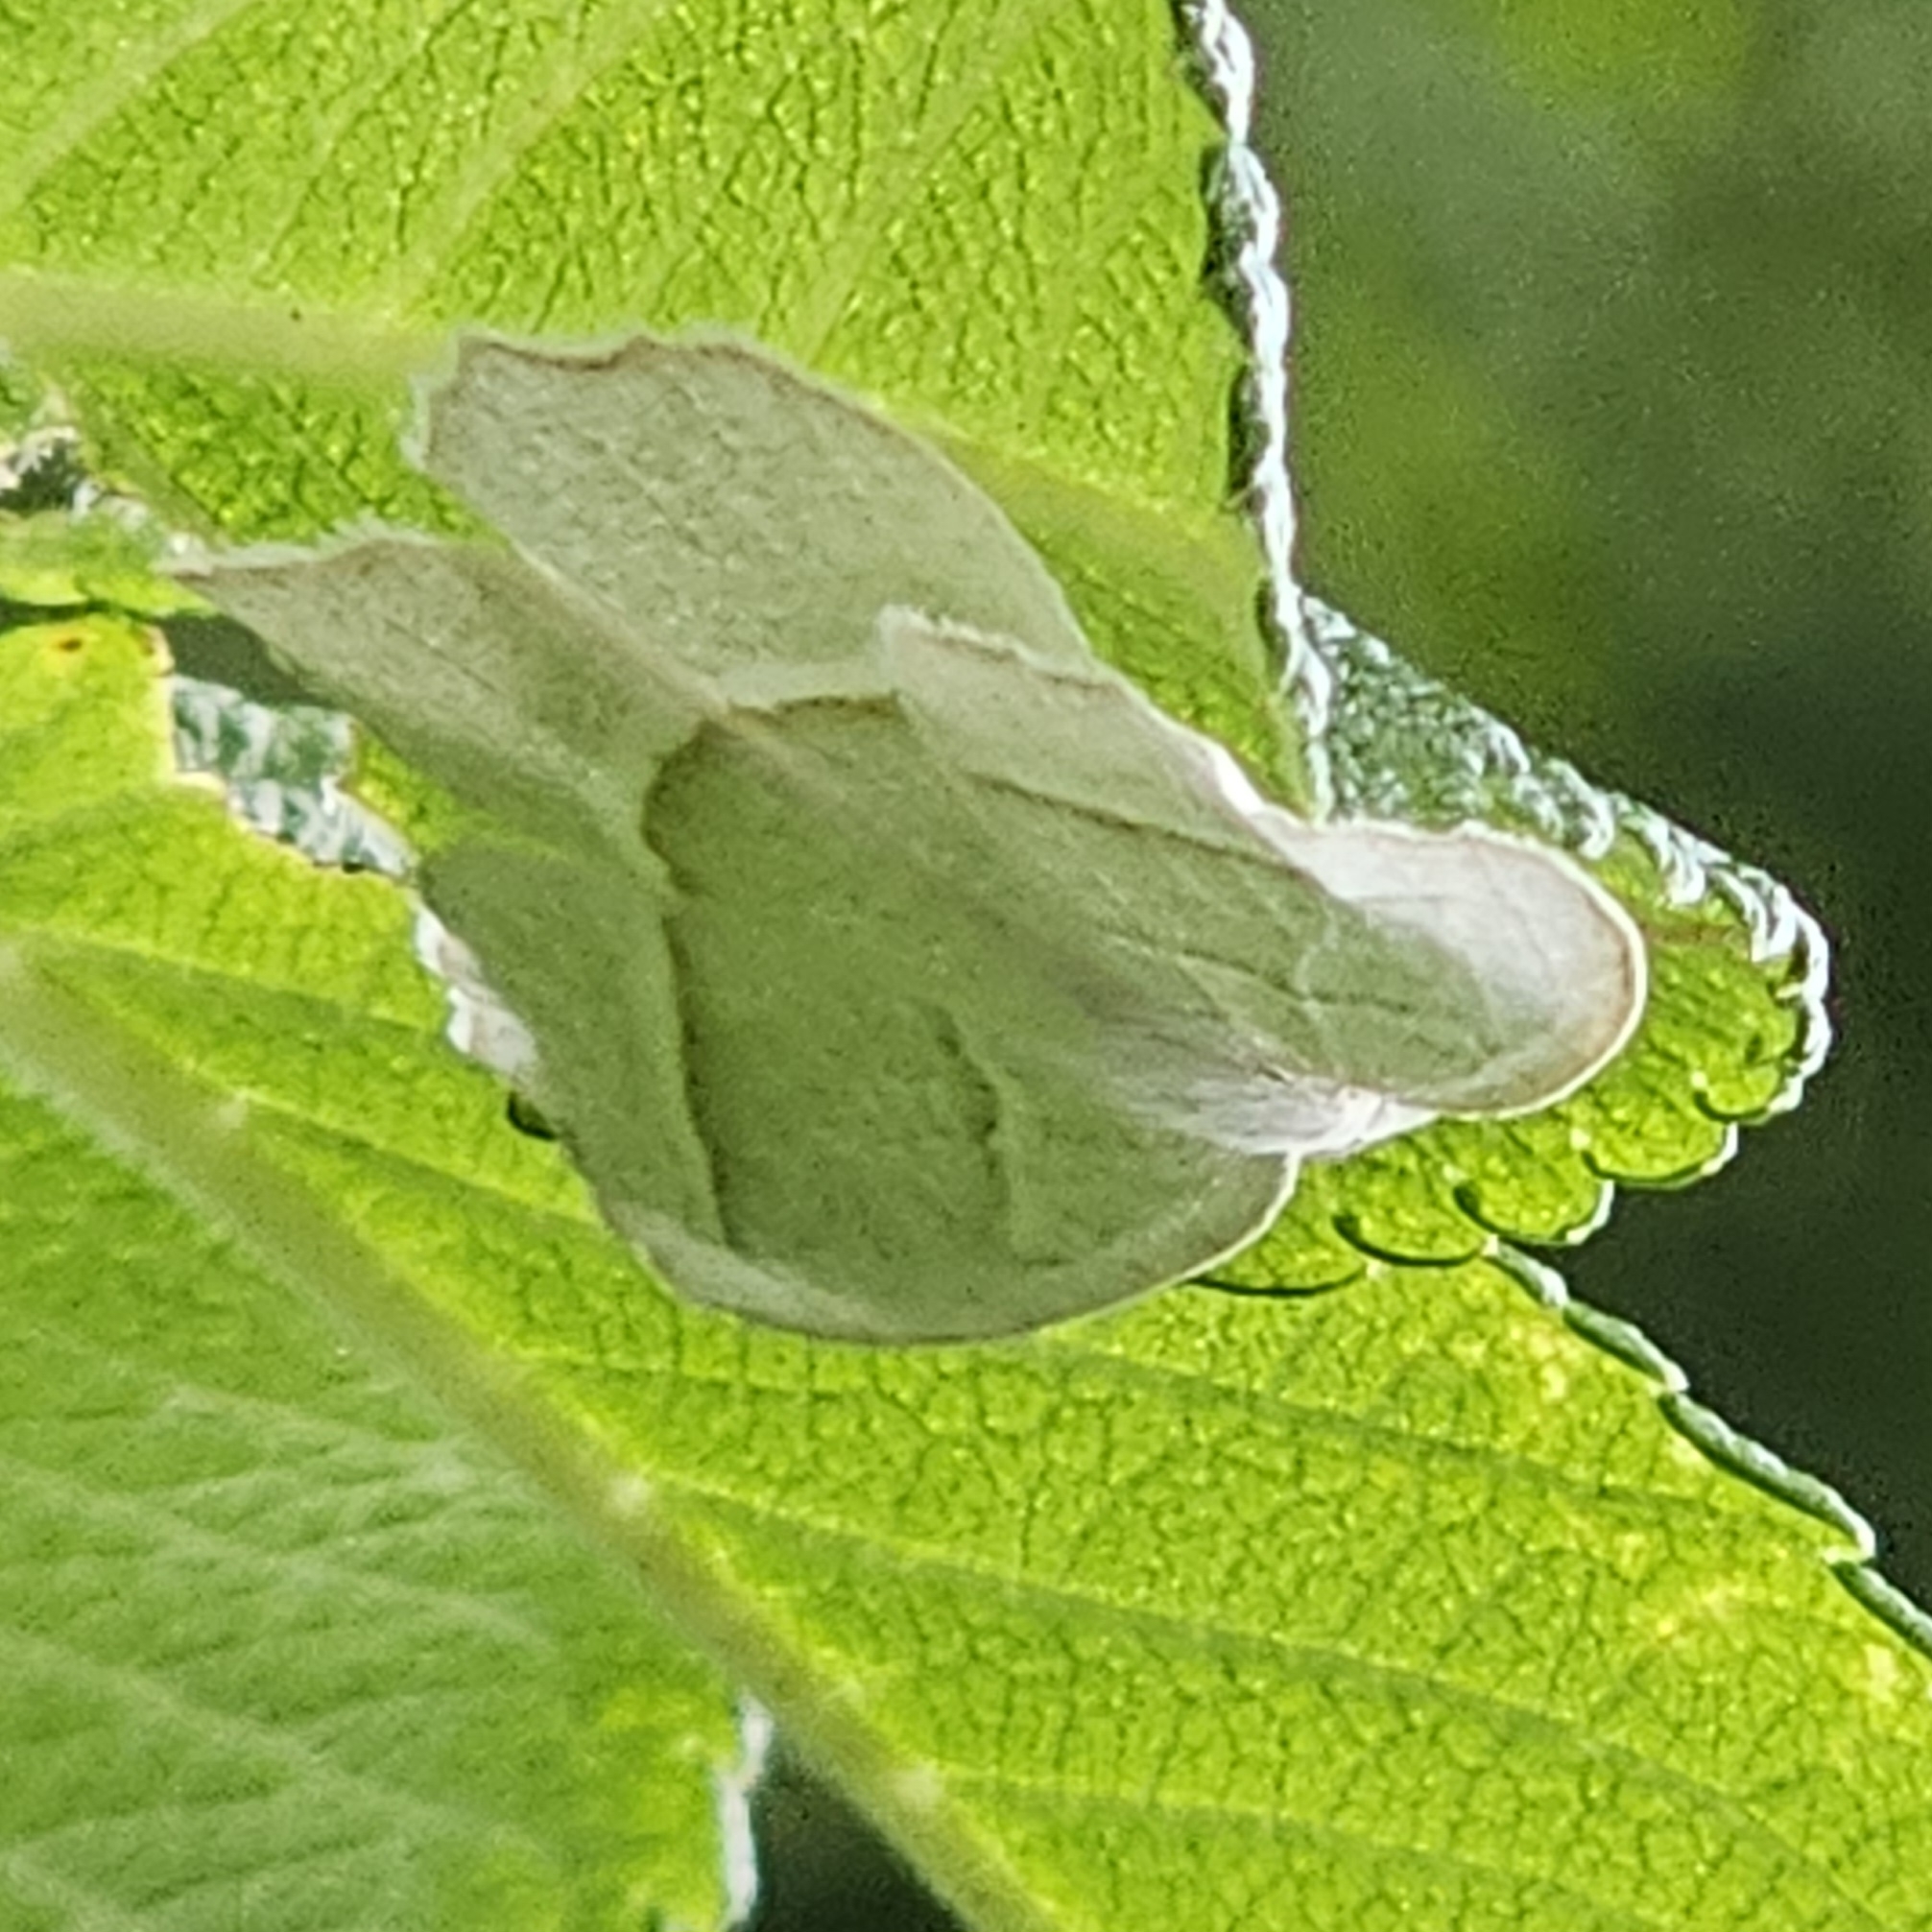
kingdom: Animalia
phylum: Arthropoda
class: Insecta
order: Lepidoptera
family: Geometridae
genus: Campaea
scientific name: Campaea perlata
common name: Fringed looper
